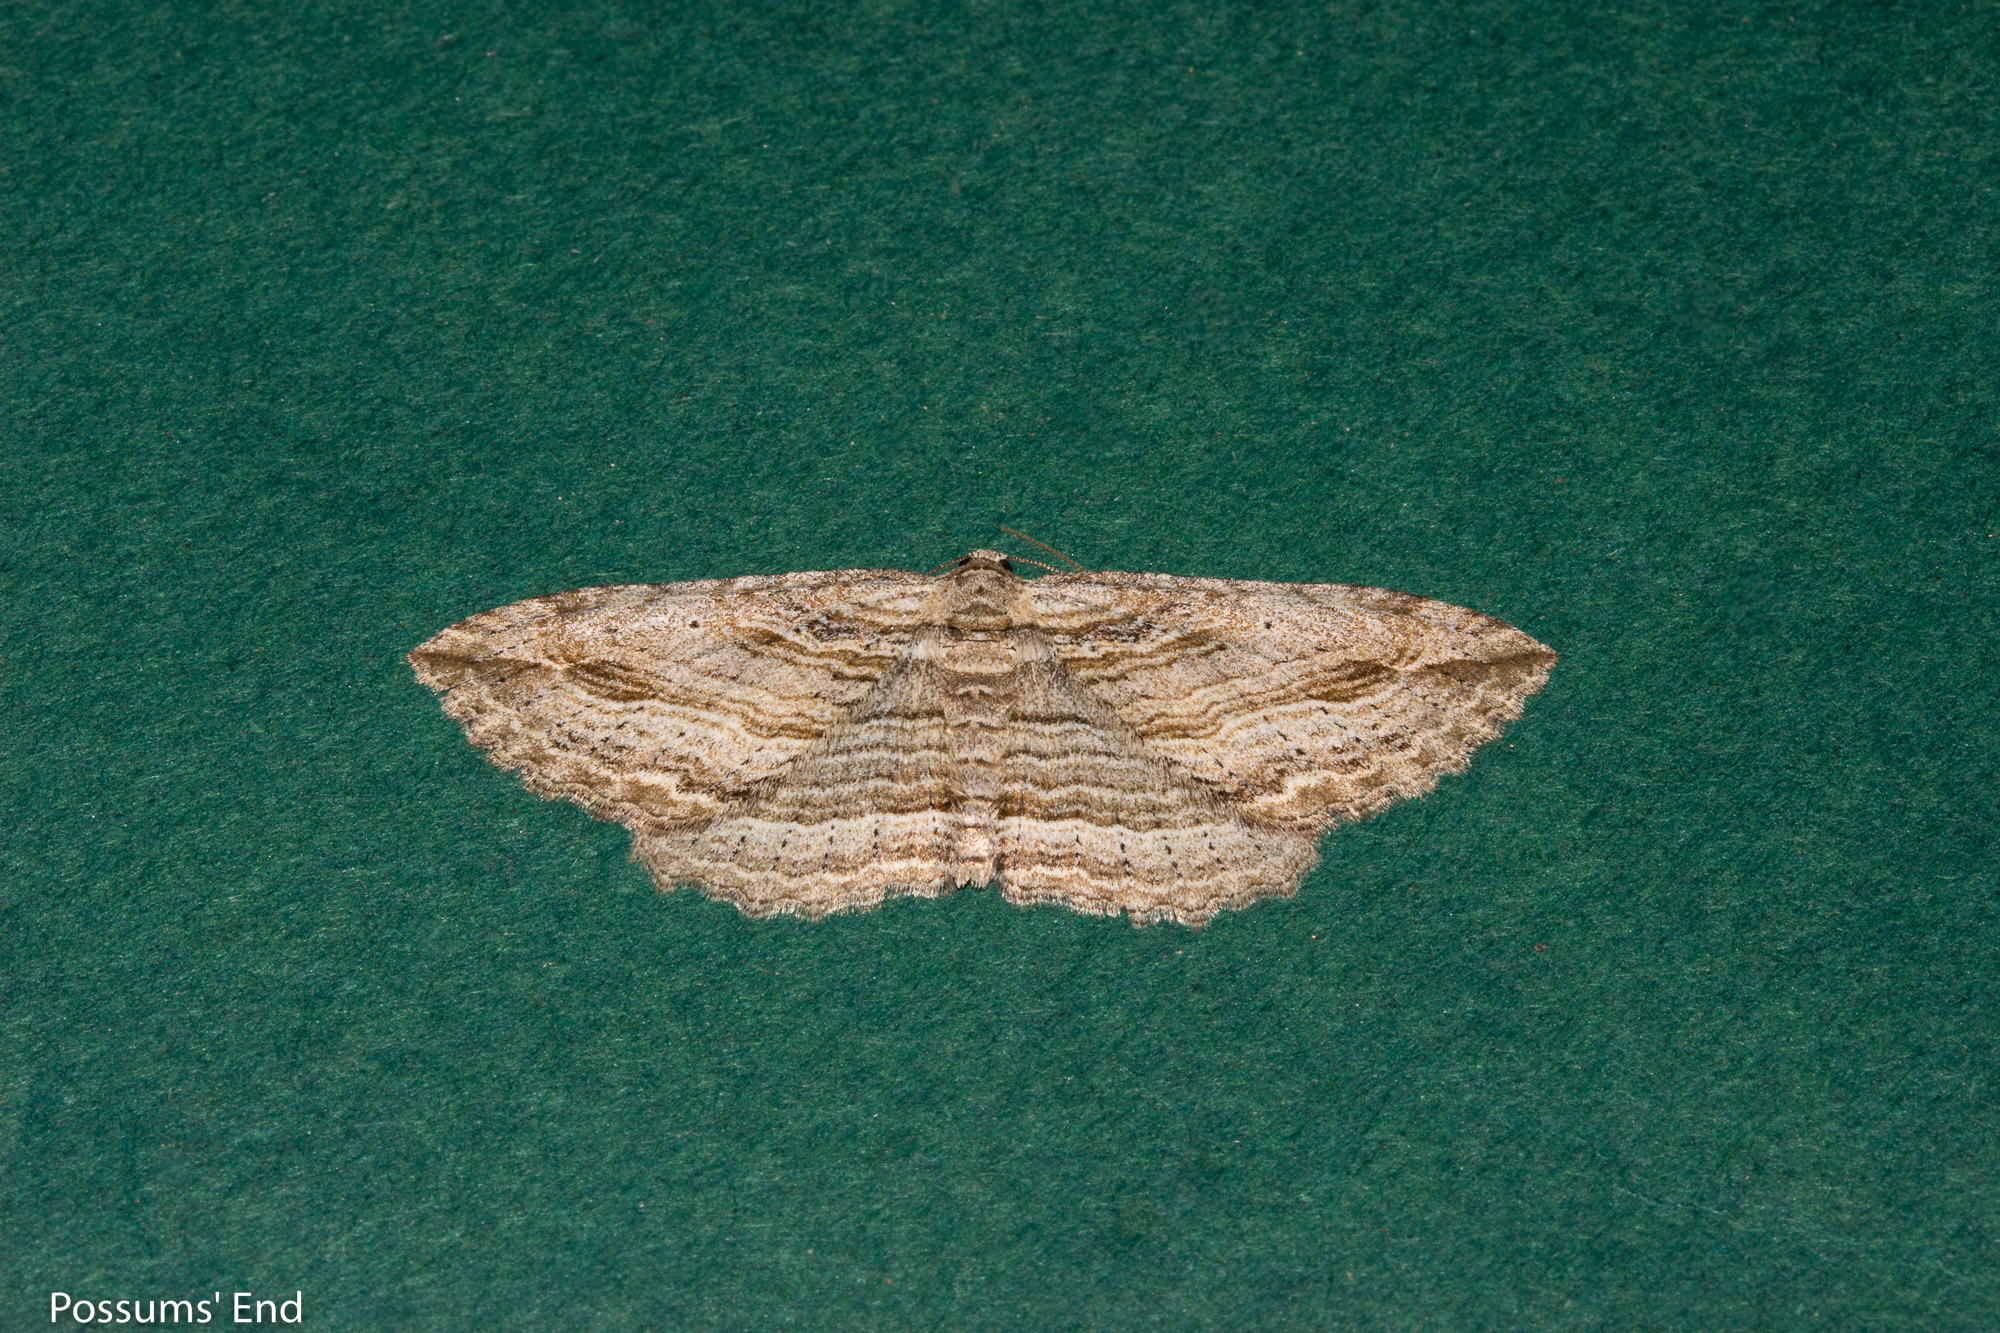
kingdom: Animalia
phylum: Arthropoda
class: Insecta
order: Lepidoptera
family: Geometridae
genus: Austrocidaria
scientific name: Austrocidaria gobiata
